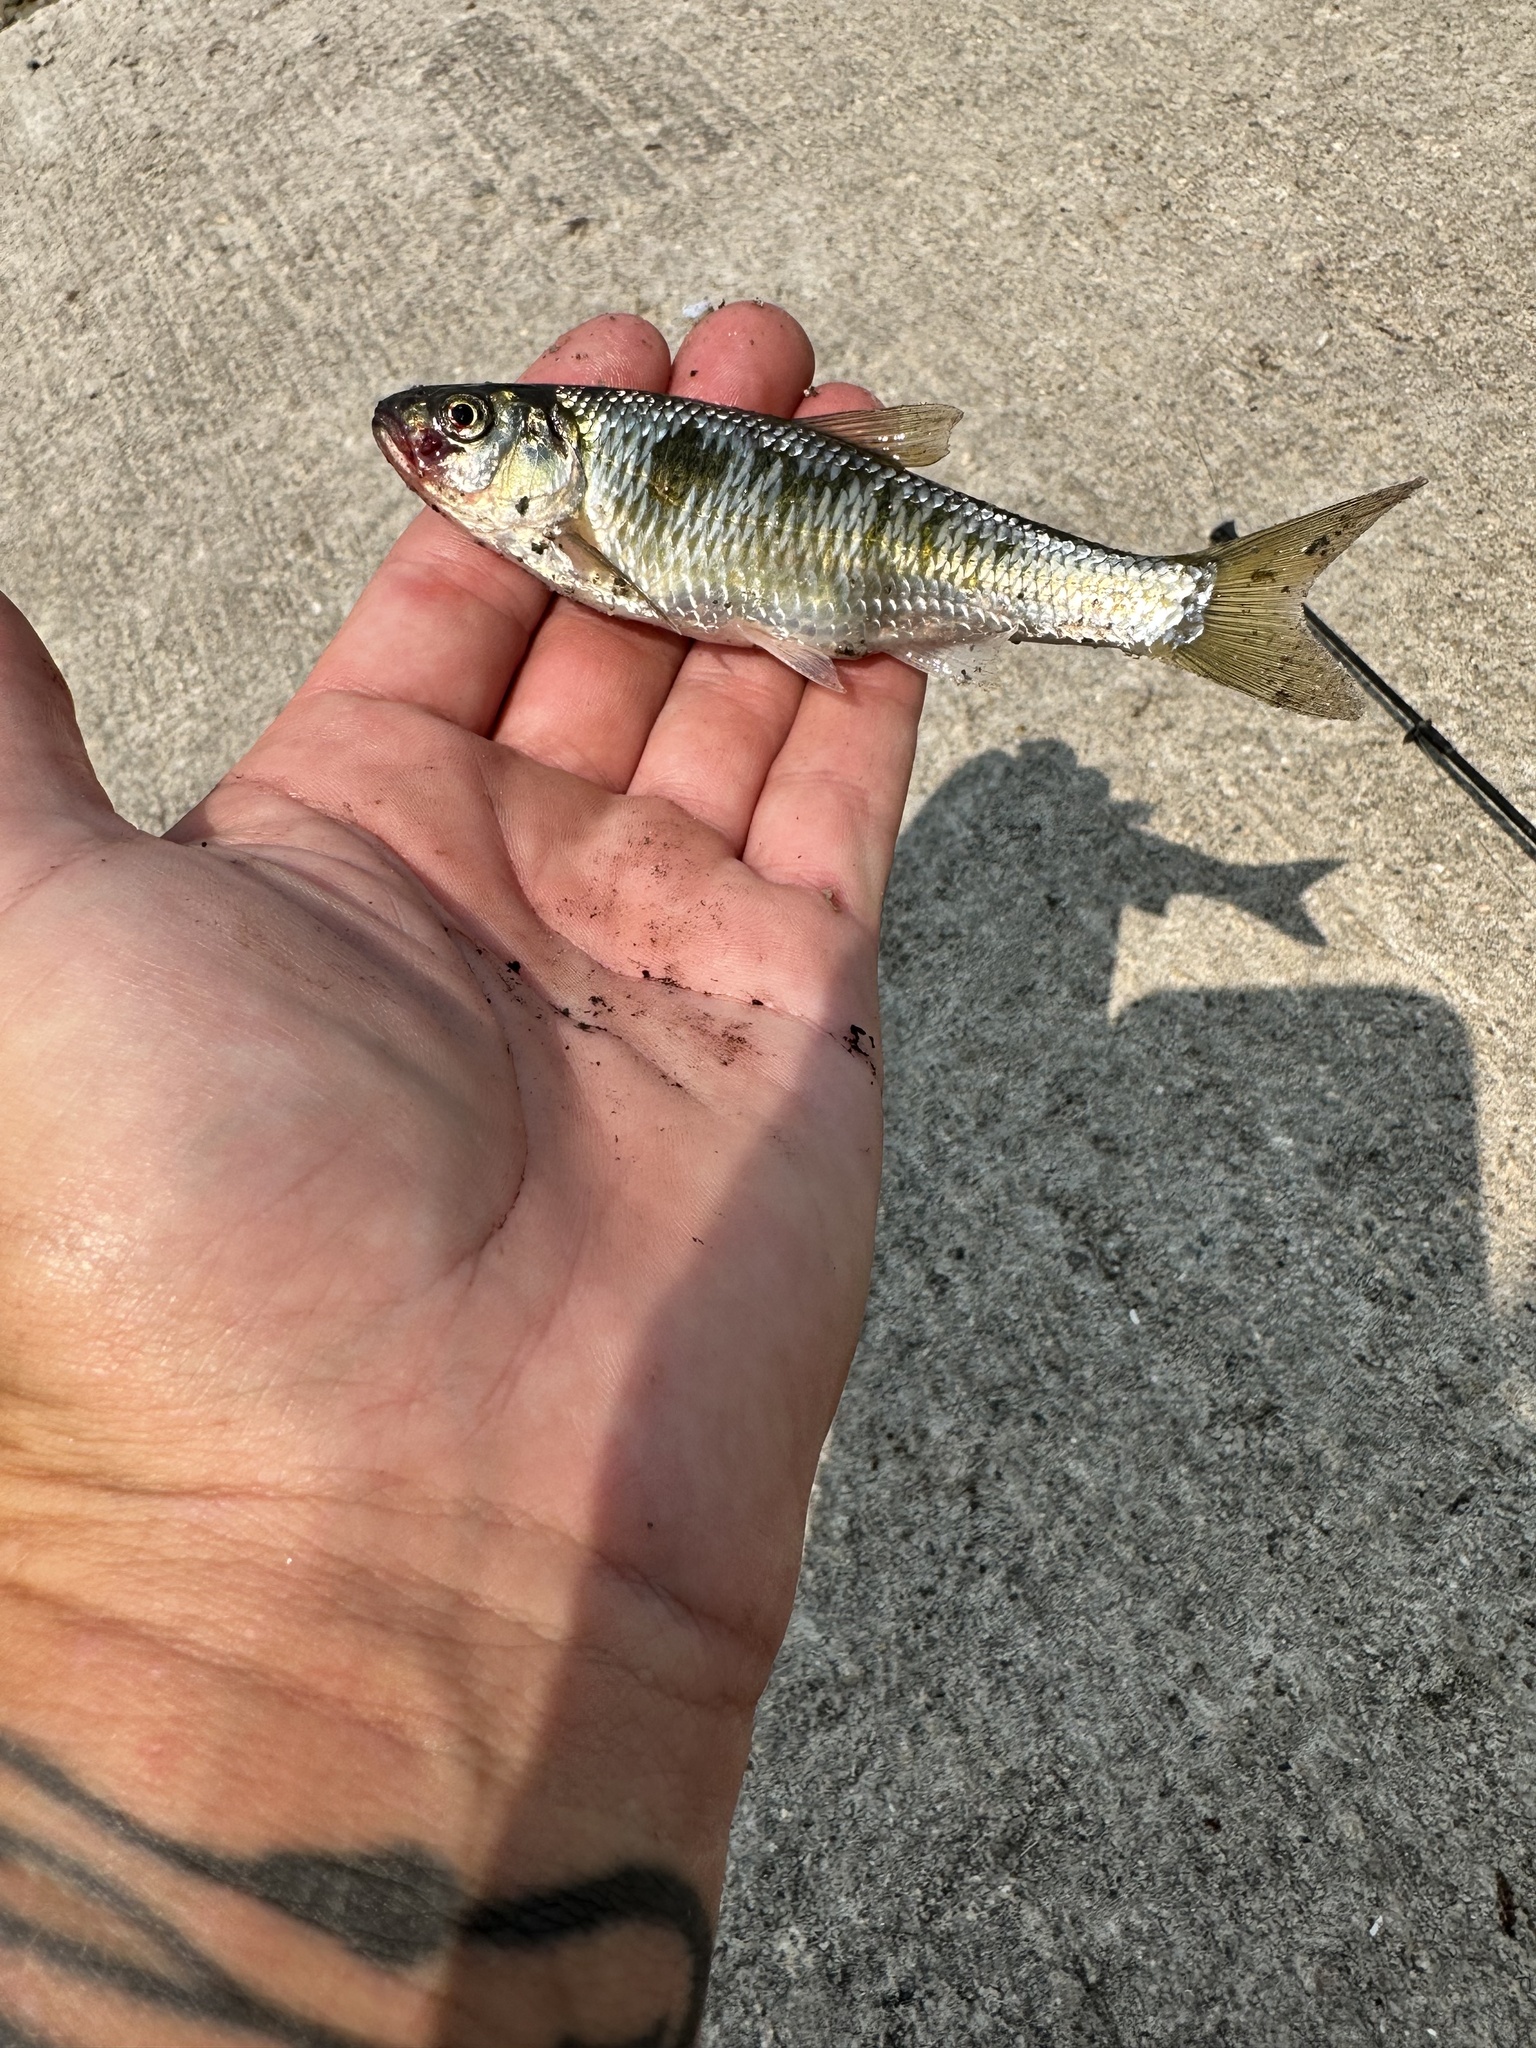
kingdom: Animalia
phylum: Chordata
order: Cypriniformes
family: Cyprinidae
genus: Luxilus
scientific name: Luxilus cornutus
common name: Common shiner
